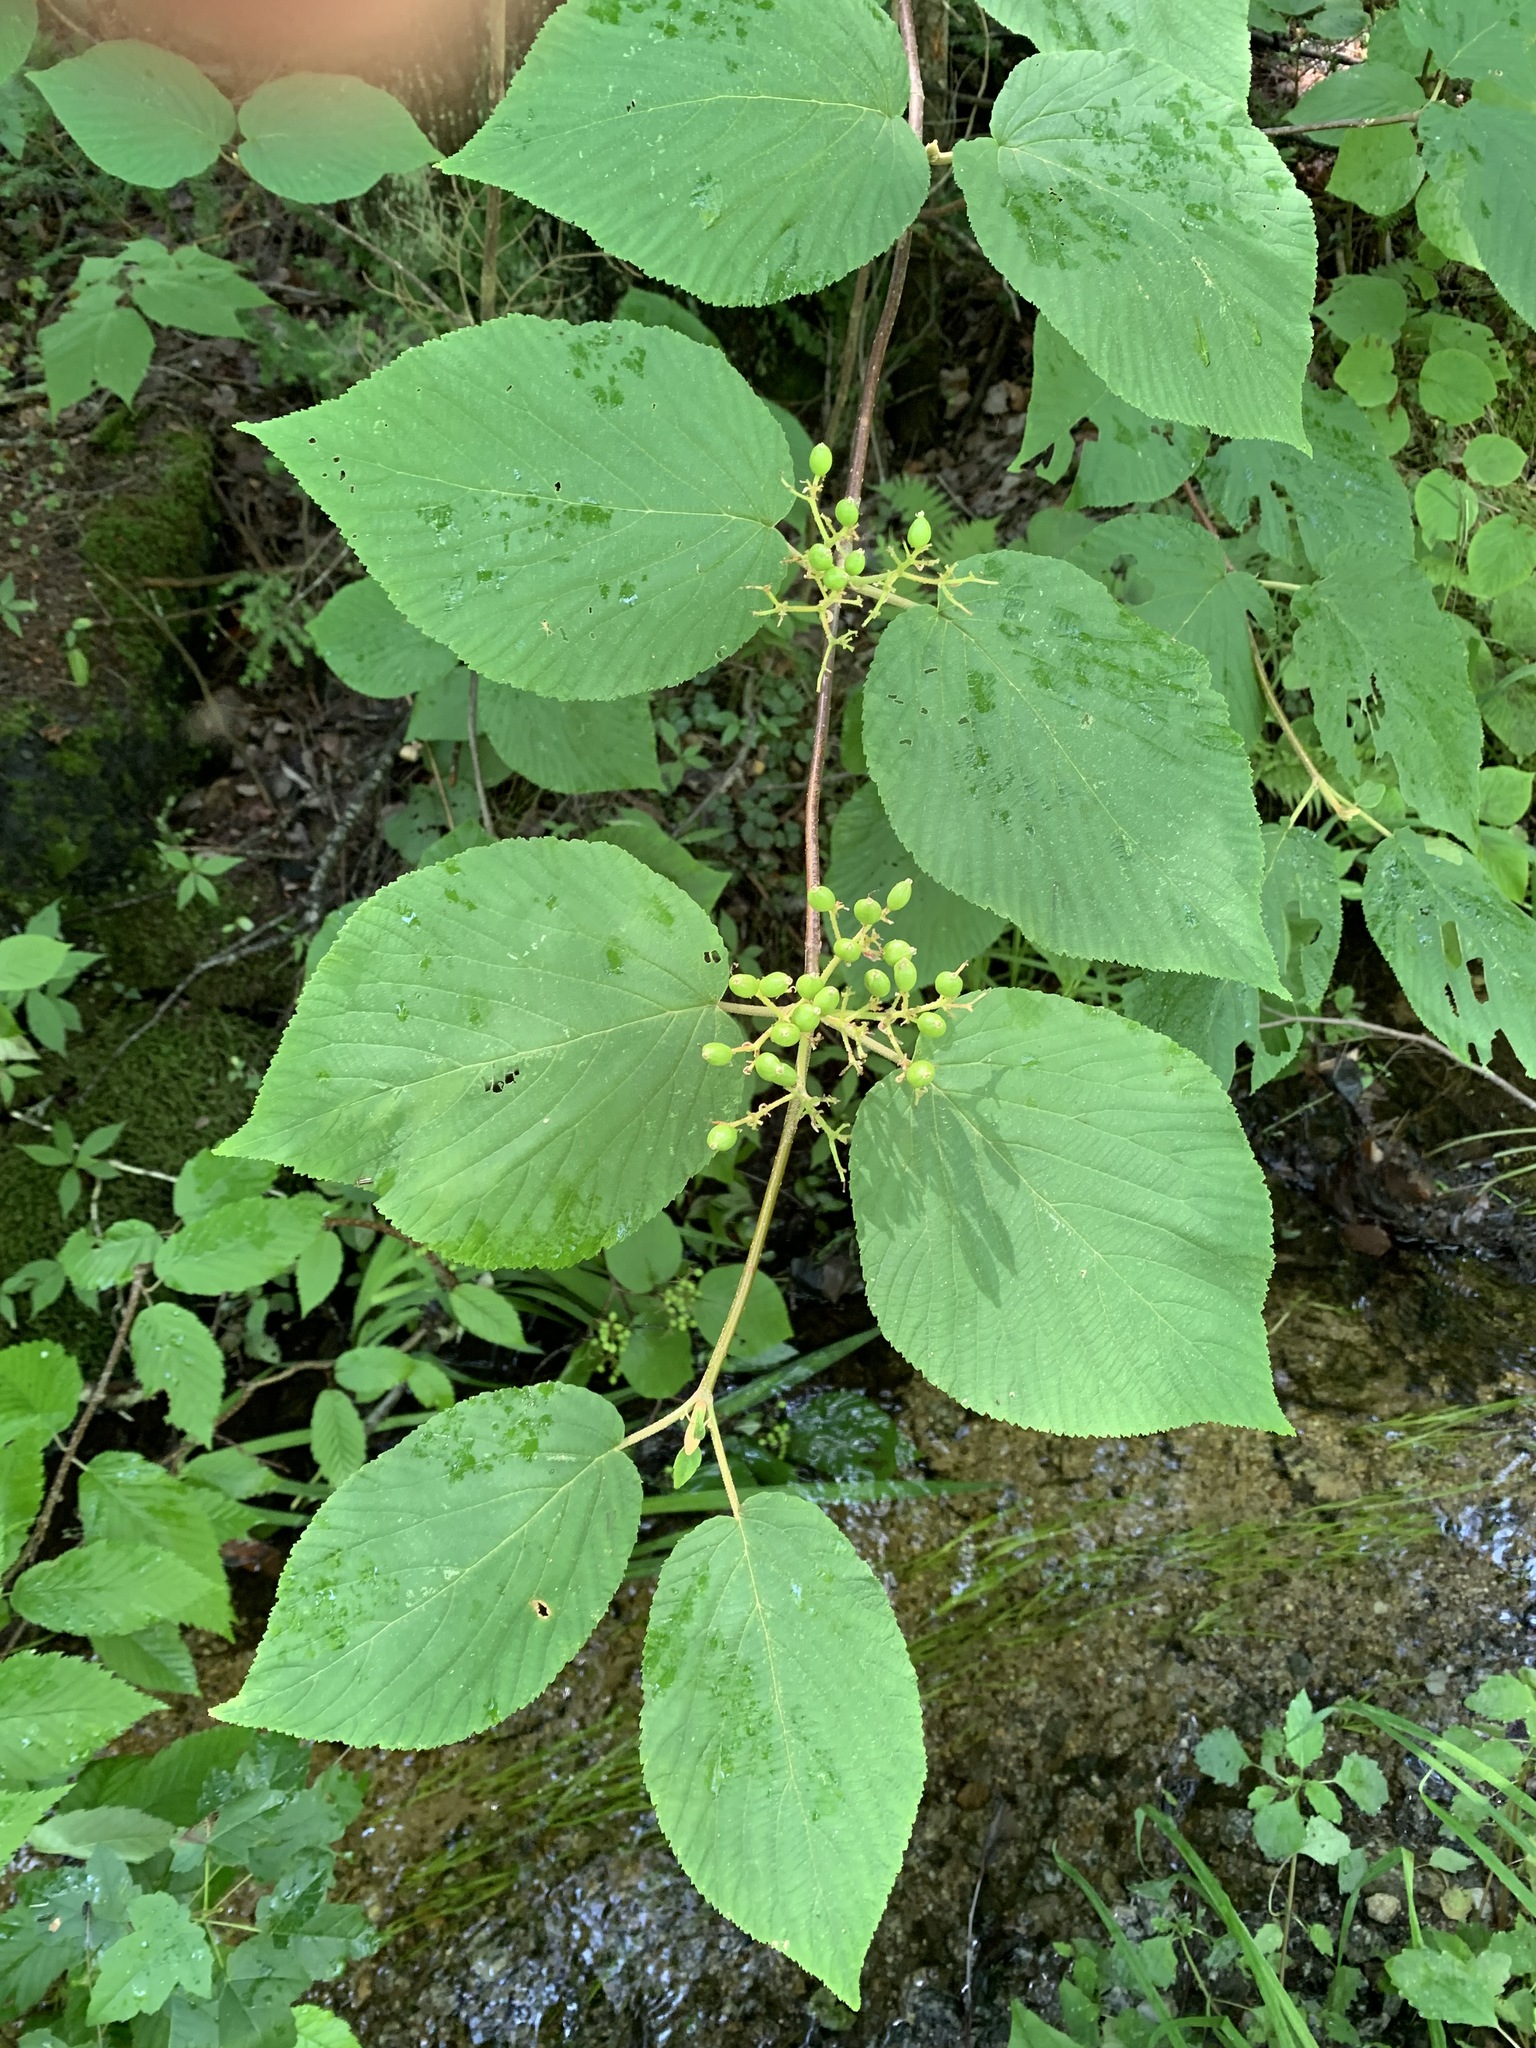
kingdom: Plantae
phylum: Tracheophyta
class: Magnoliopsida
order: Dipsacales
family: Viburnaceae
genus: Viburnum
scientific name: Viburnum lantanoides
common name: Hobblebush
